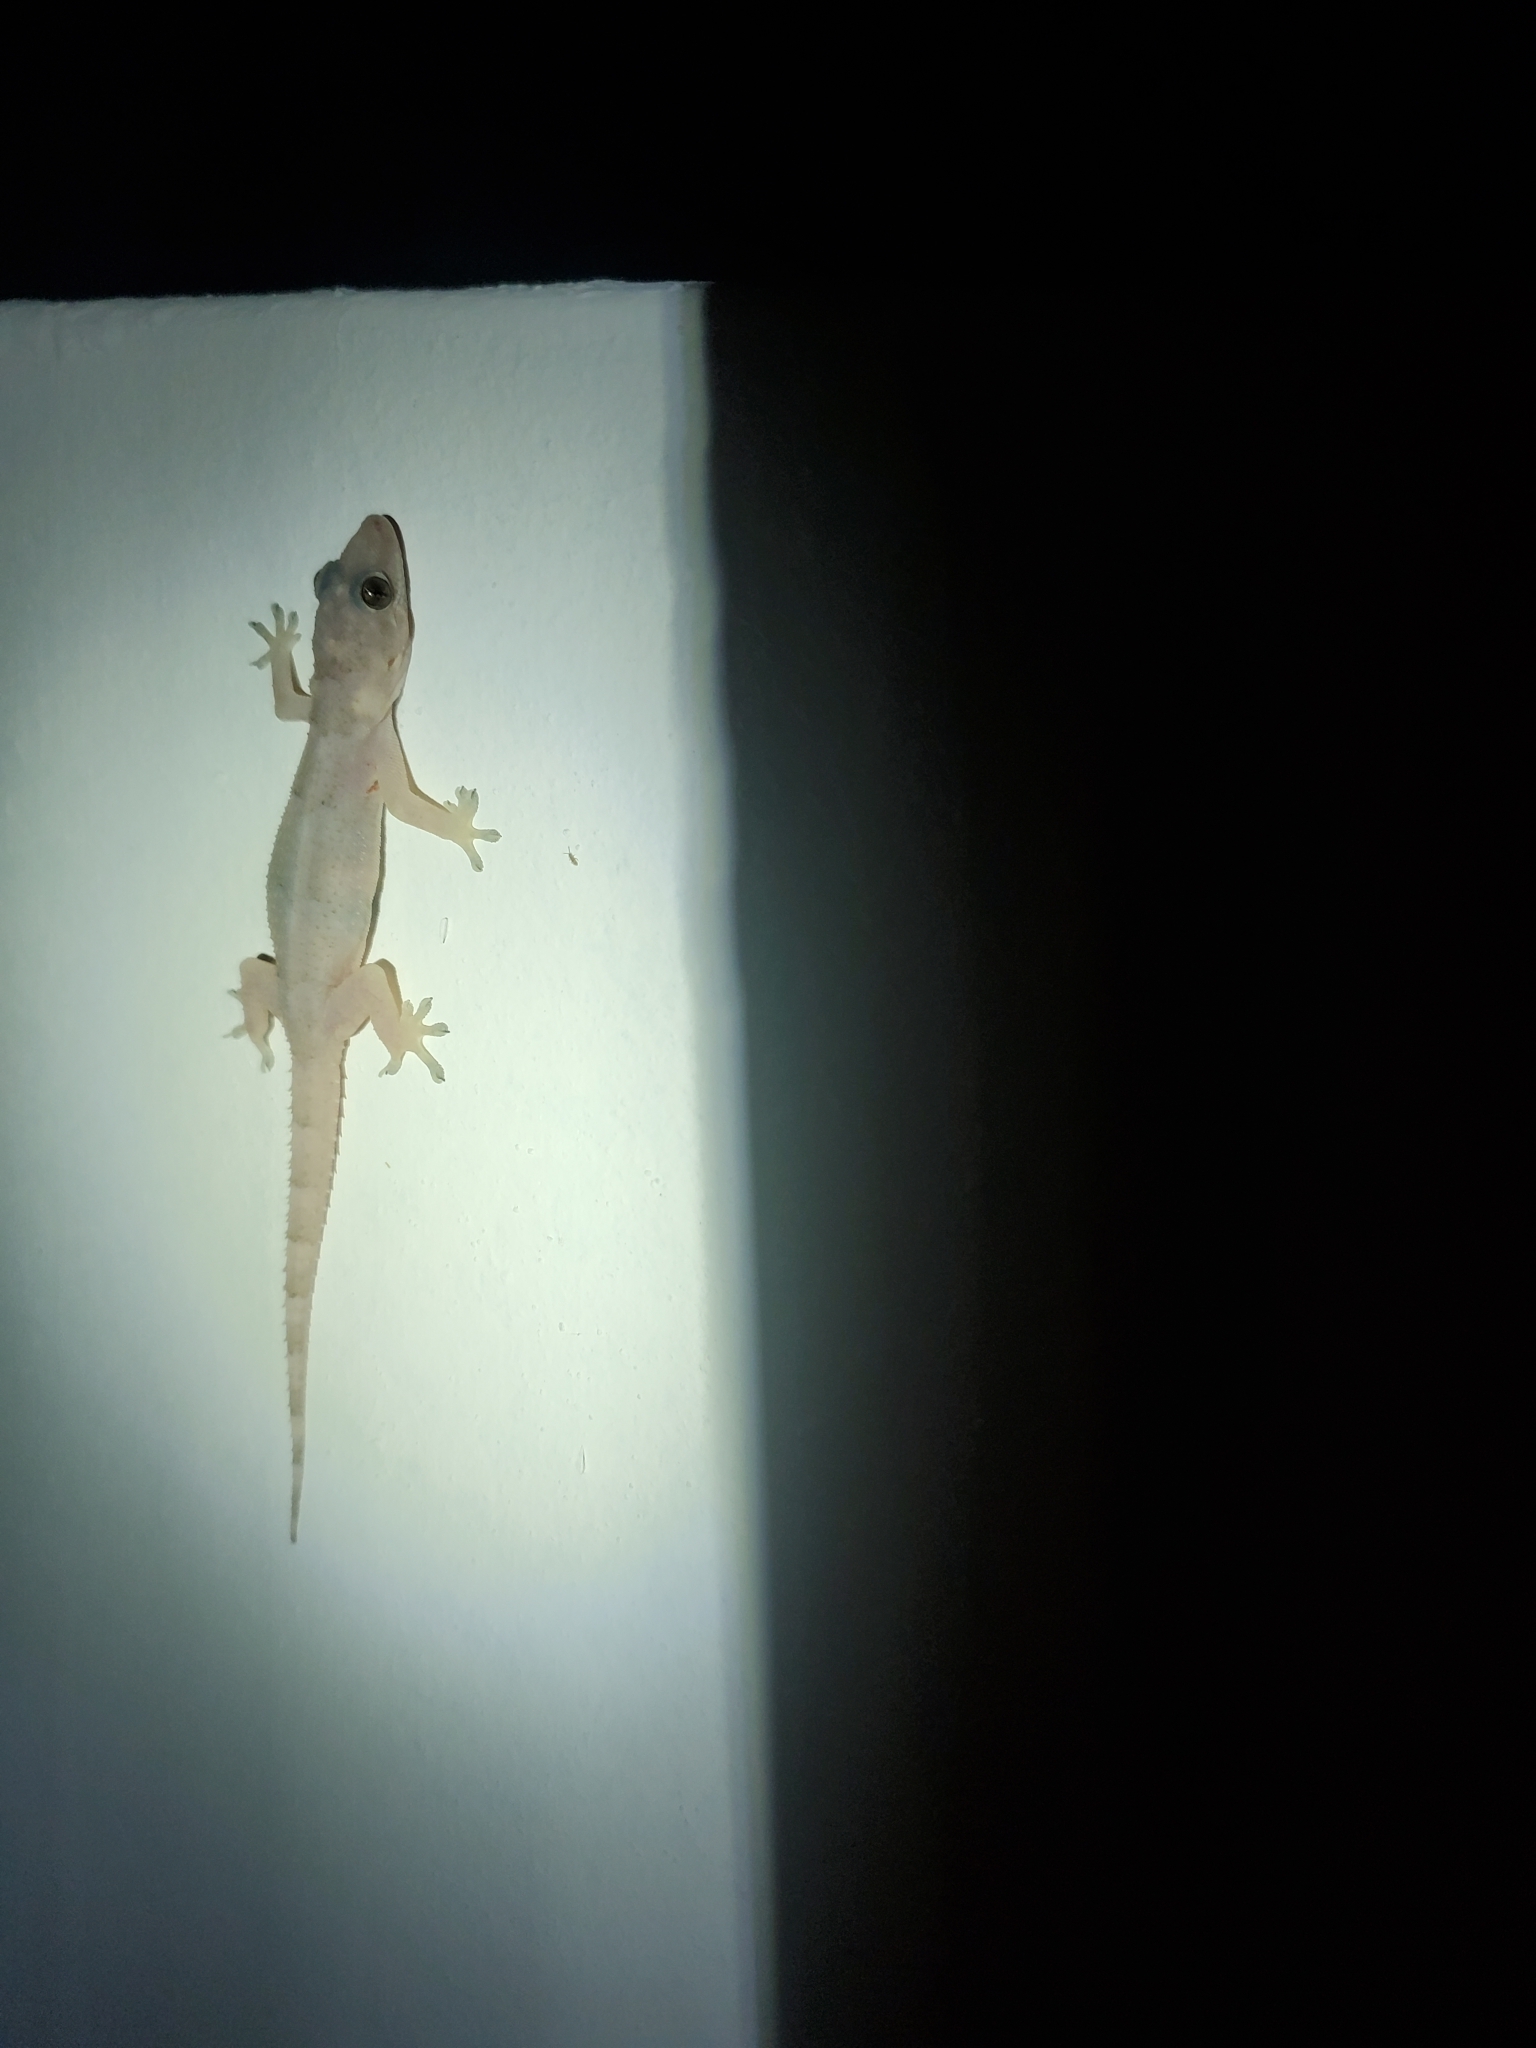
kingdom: Animalia
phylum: Chordata
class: Squamata
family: Gekkonidae
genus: Hemidactylus
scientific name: Hemidactylus mabouia
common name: House gecko
